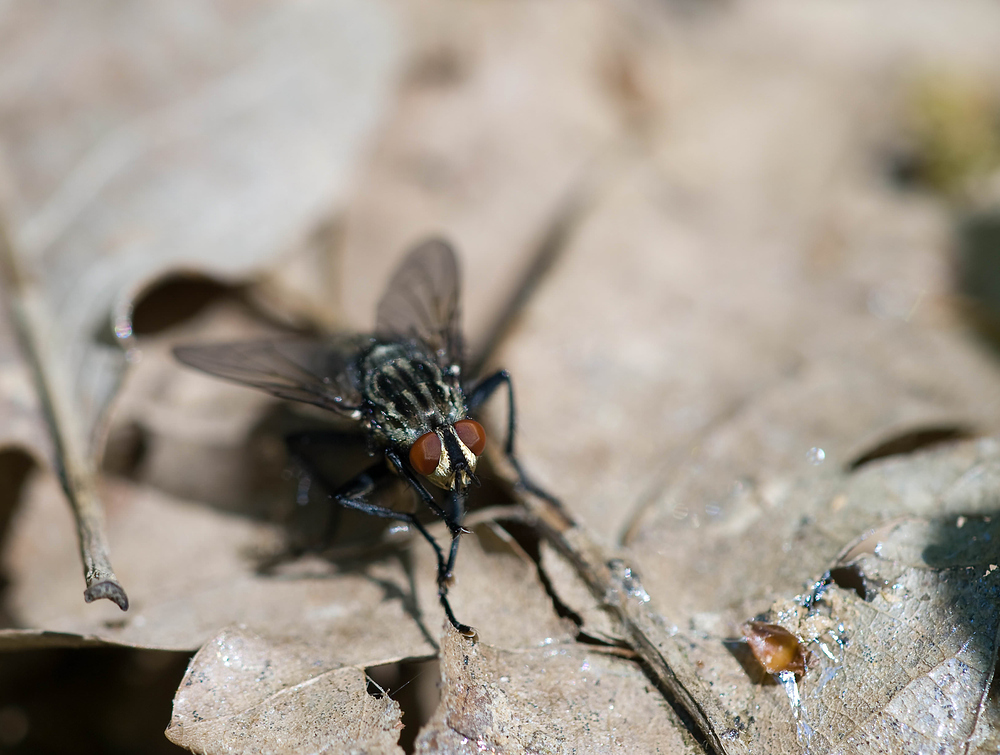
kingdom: Animalia
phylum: Arthropoda
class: Insecta
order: Diptera
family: Sarcophagidae
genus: Sarcophaga
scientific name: Sarcophaga
